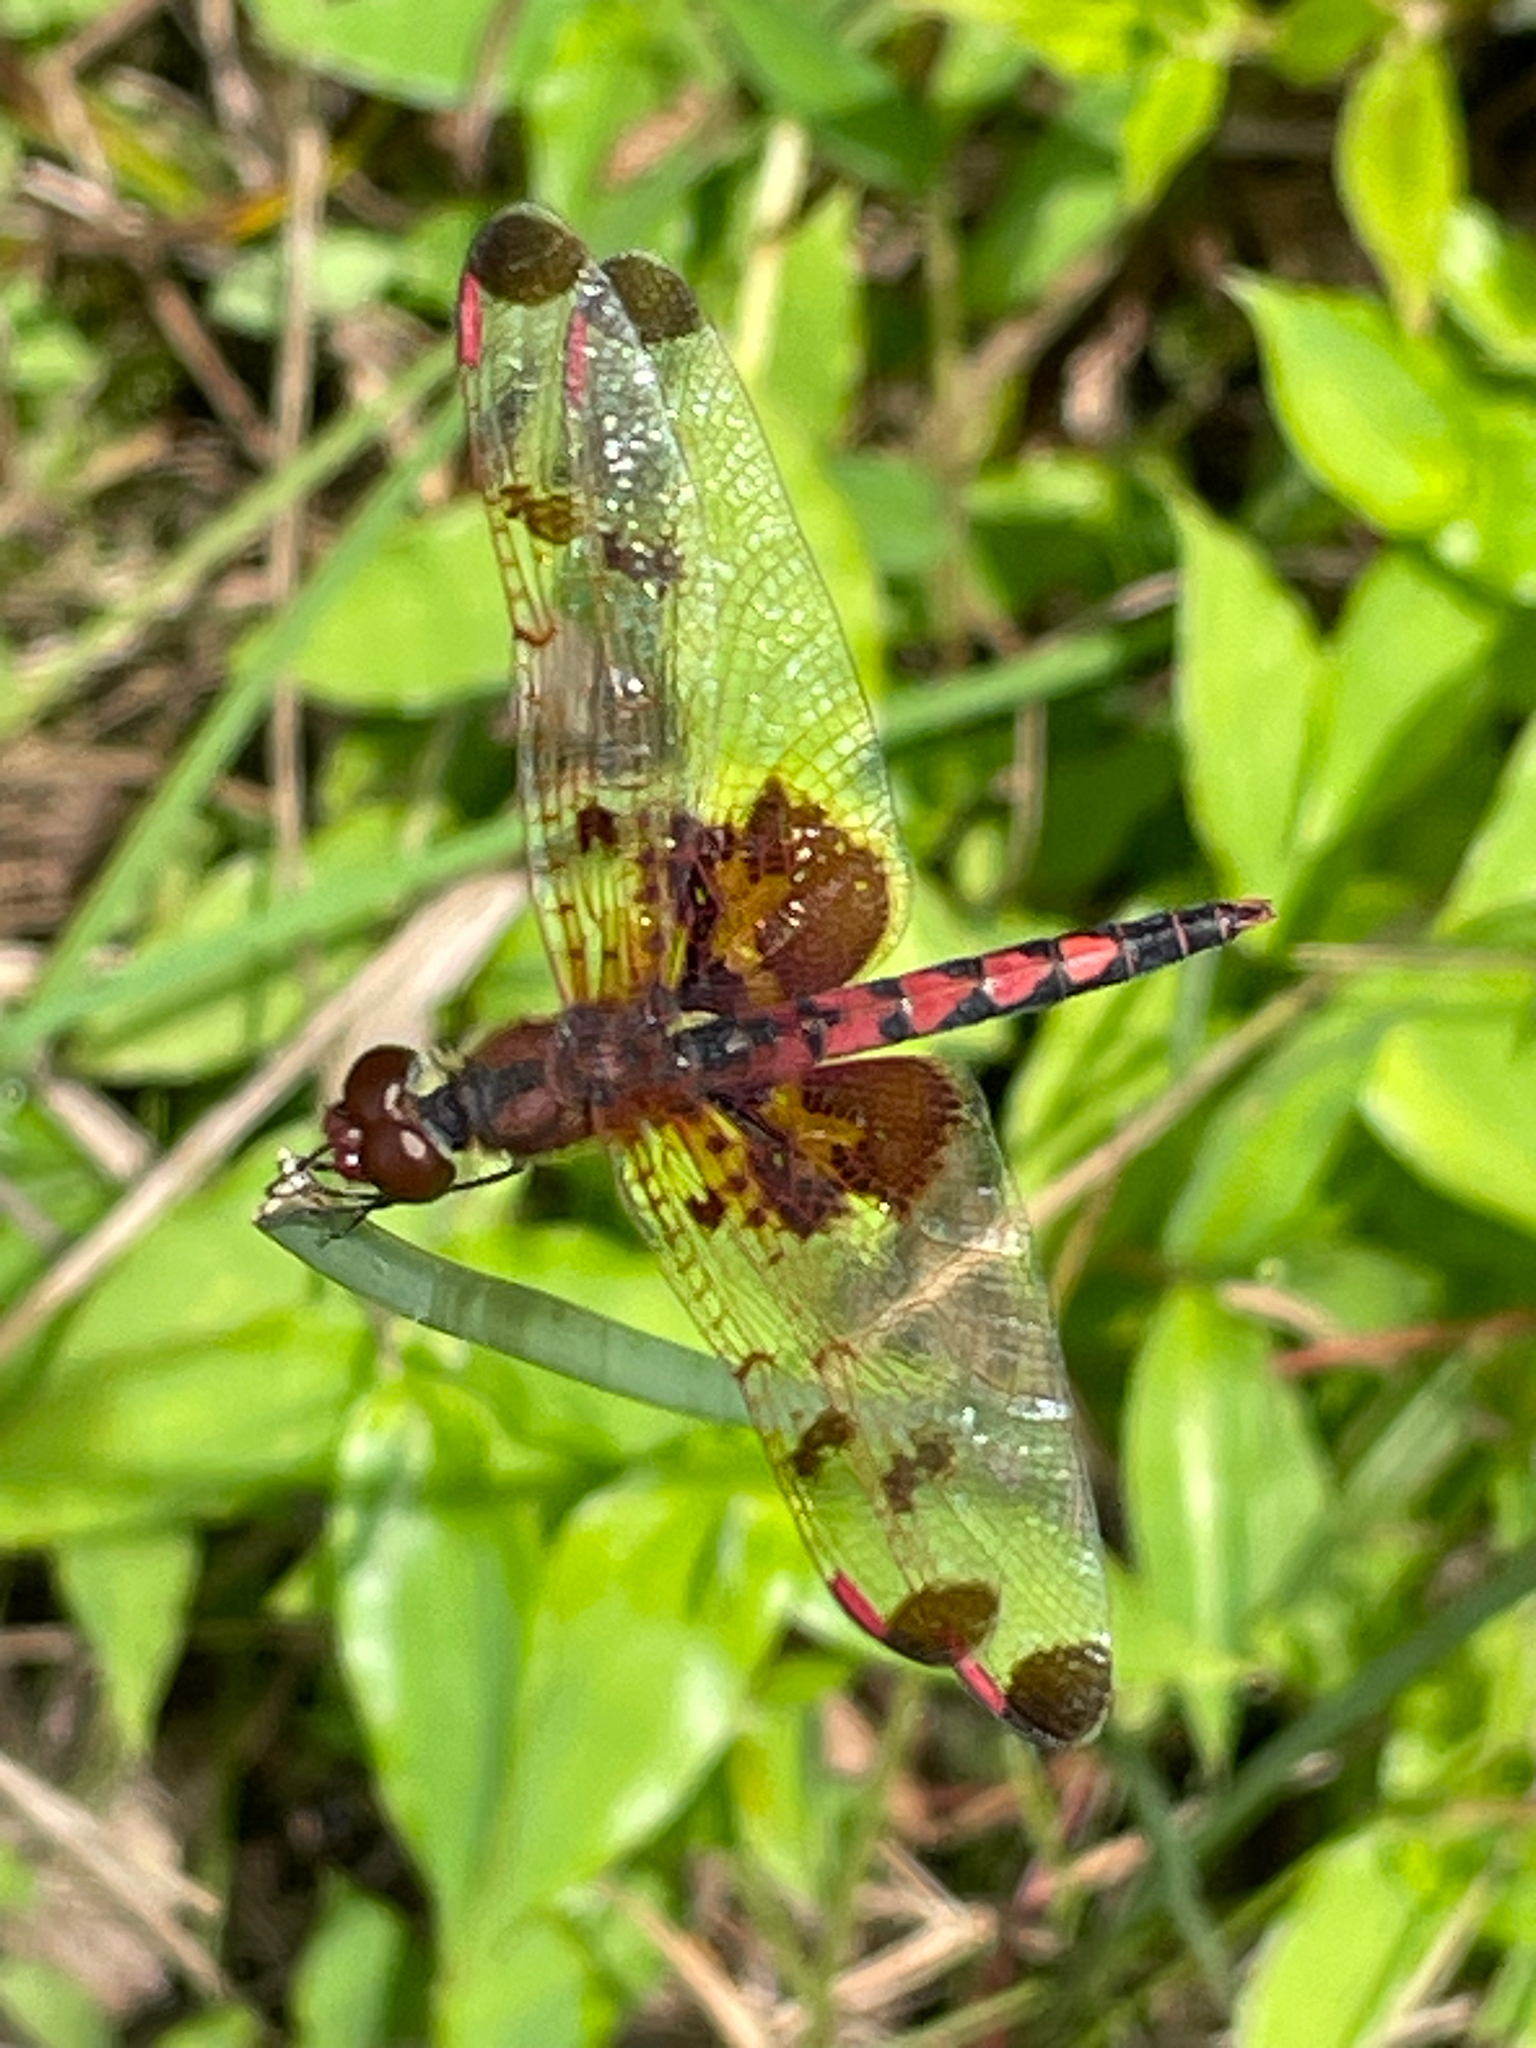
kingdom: Animalia
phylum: Arthropoda
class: Insecta
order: Odonata
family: Libellulidae
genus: Celithemis
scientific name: Celithemis elisa
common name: Calico pennant
